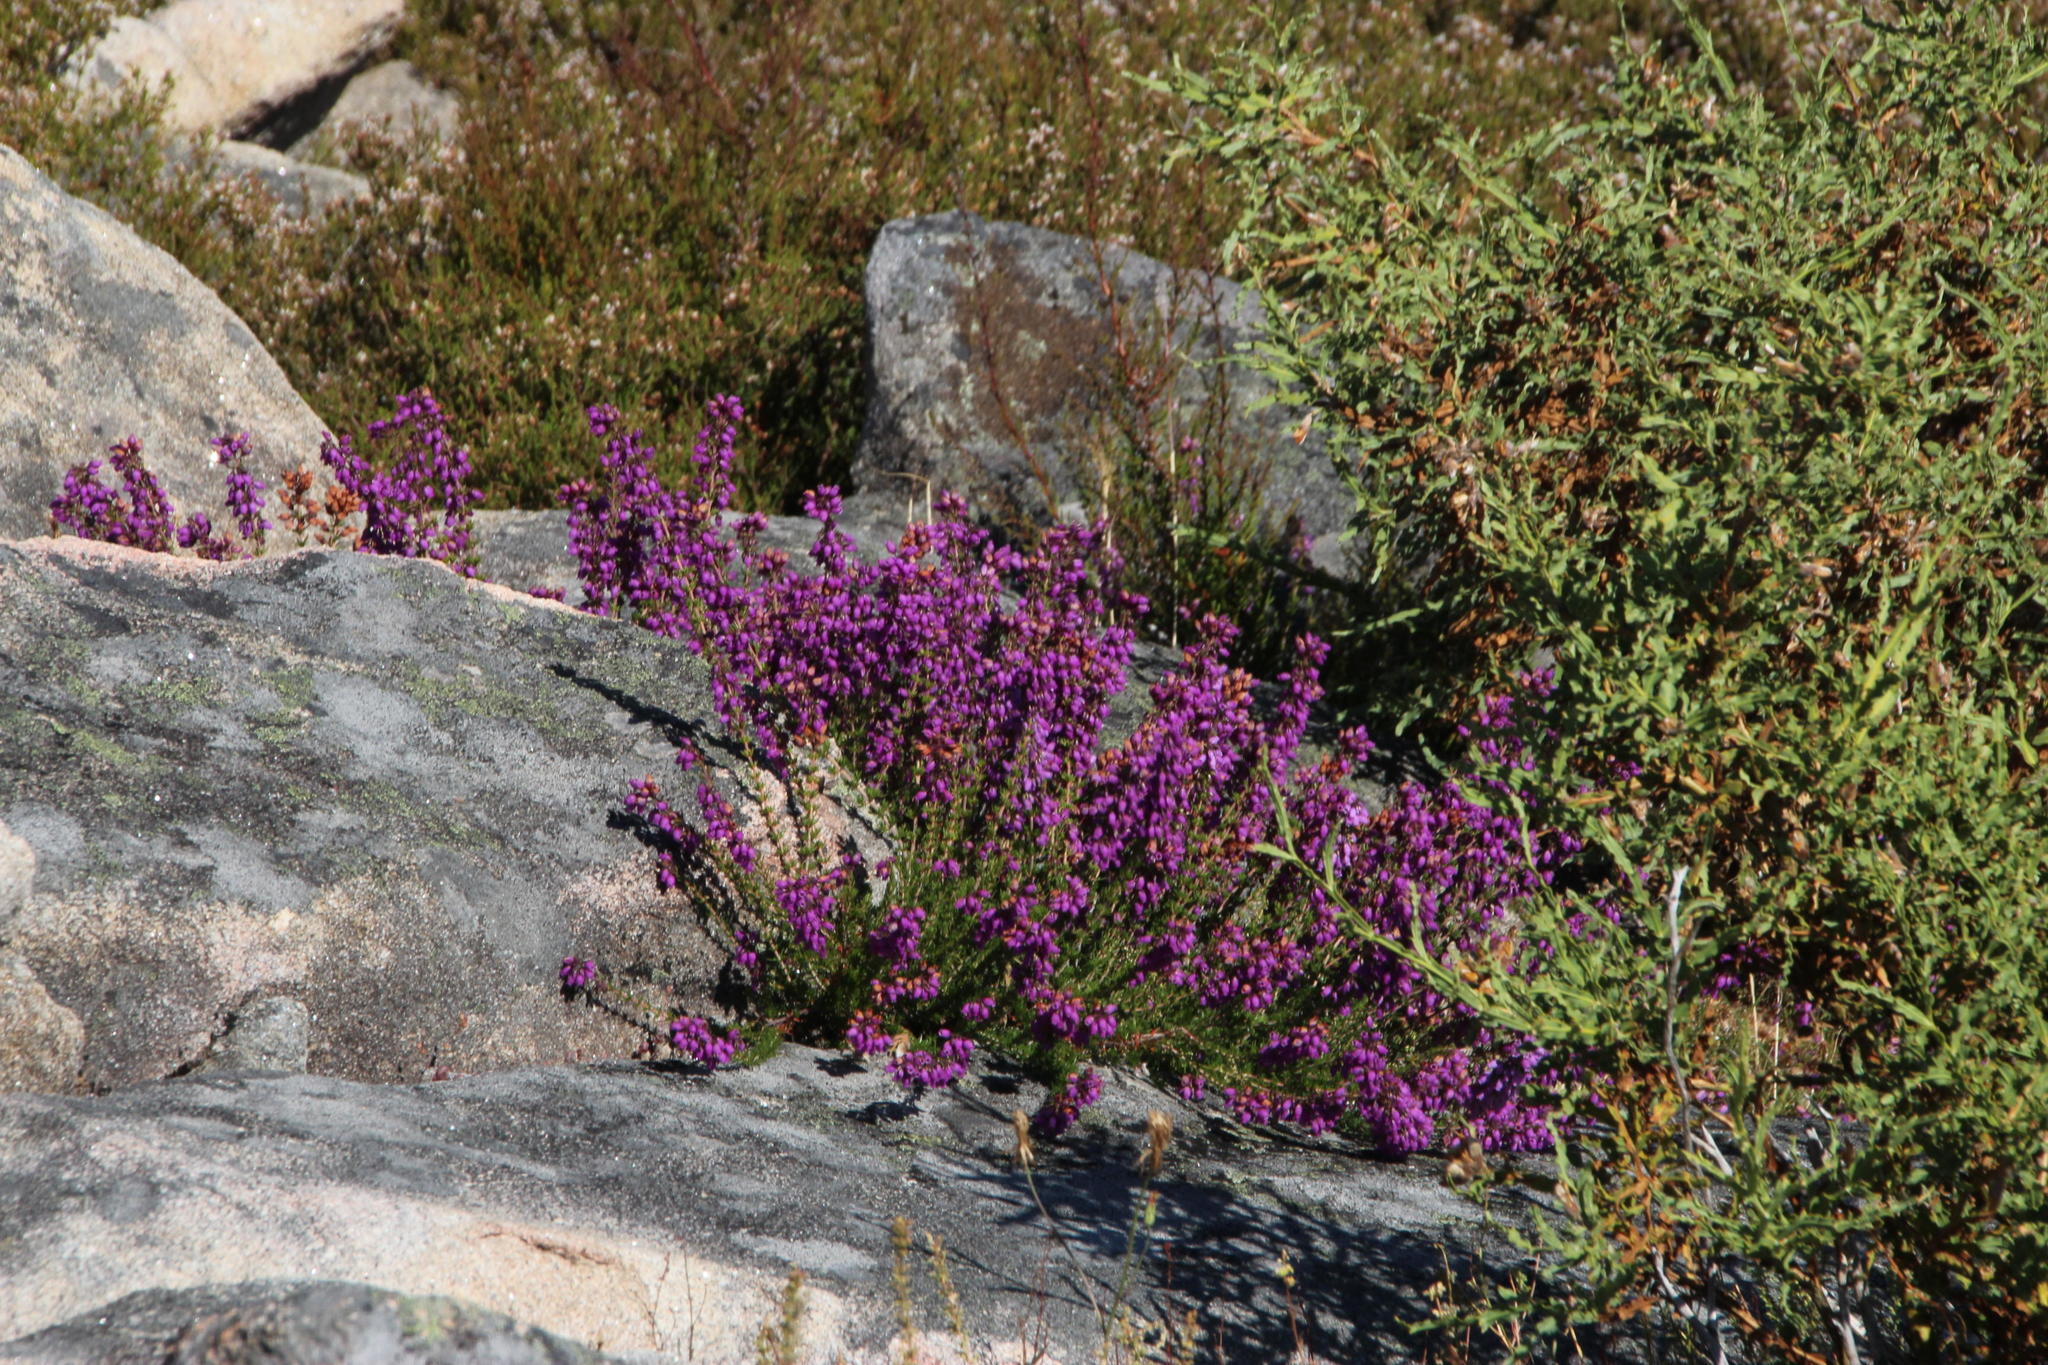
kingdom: Plantae
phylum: Tracheophyta
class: Magnoliopsida
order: Ericales
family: Ericaceae
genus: Erica
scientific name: Erica cinerea
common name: Bell heather
